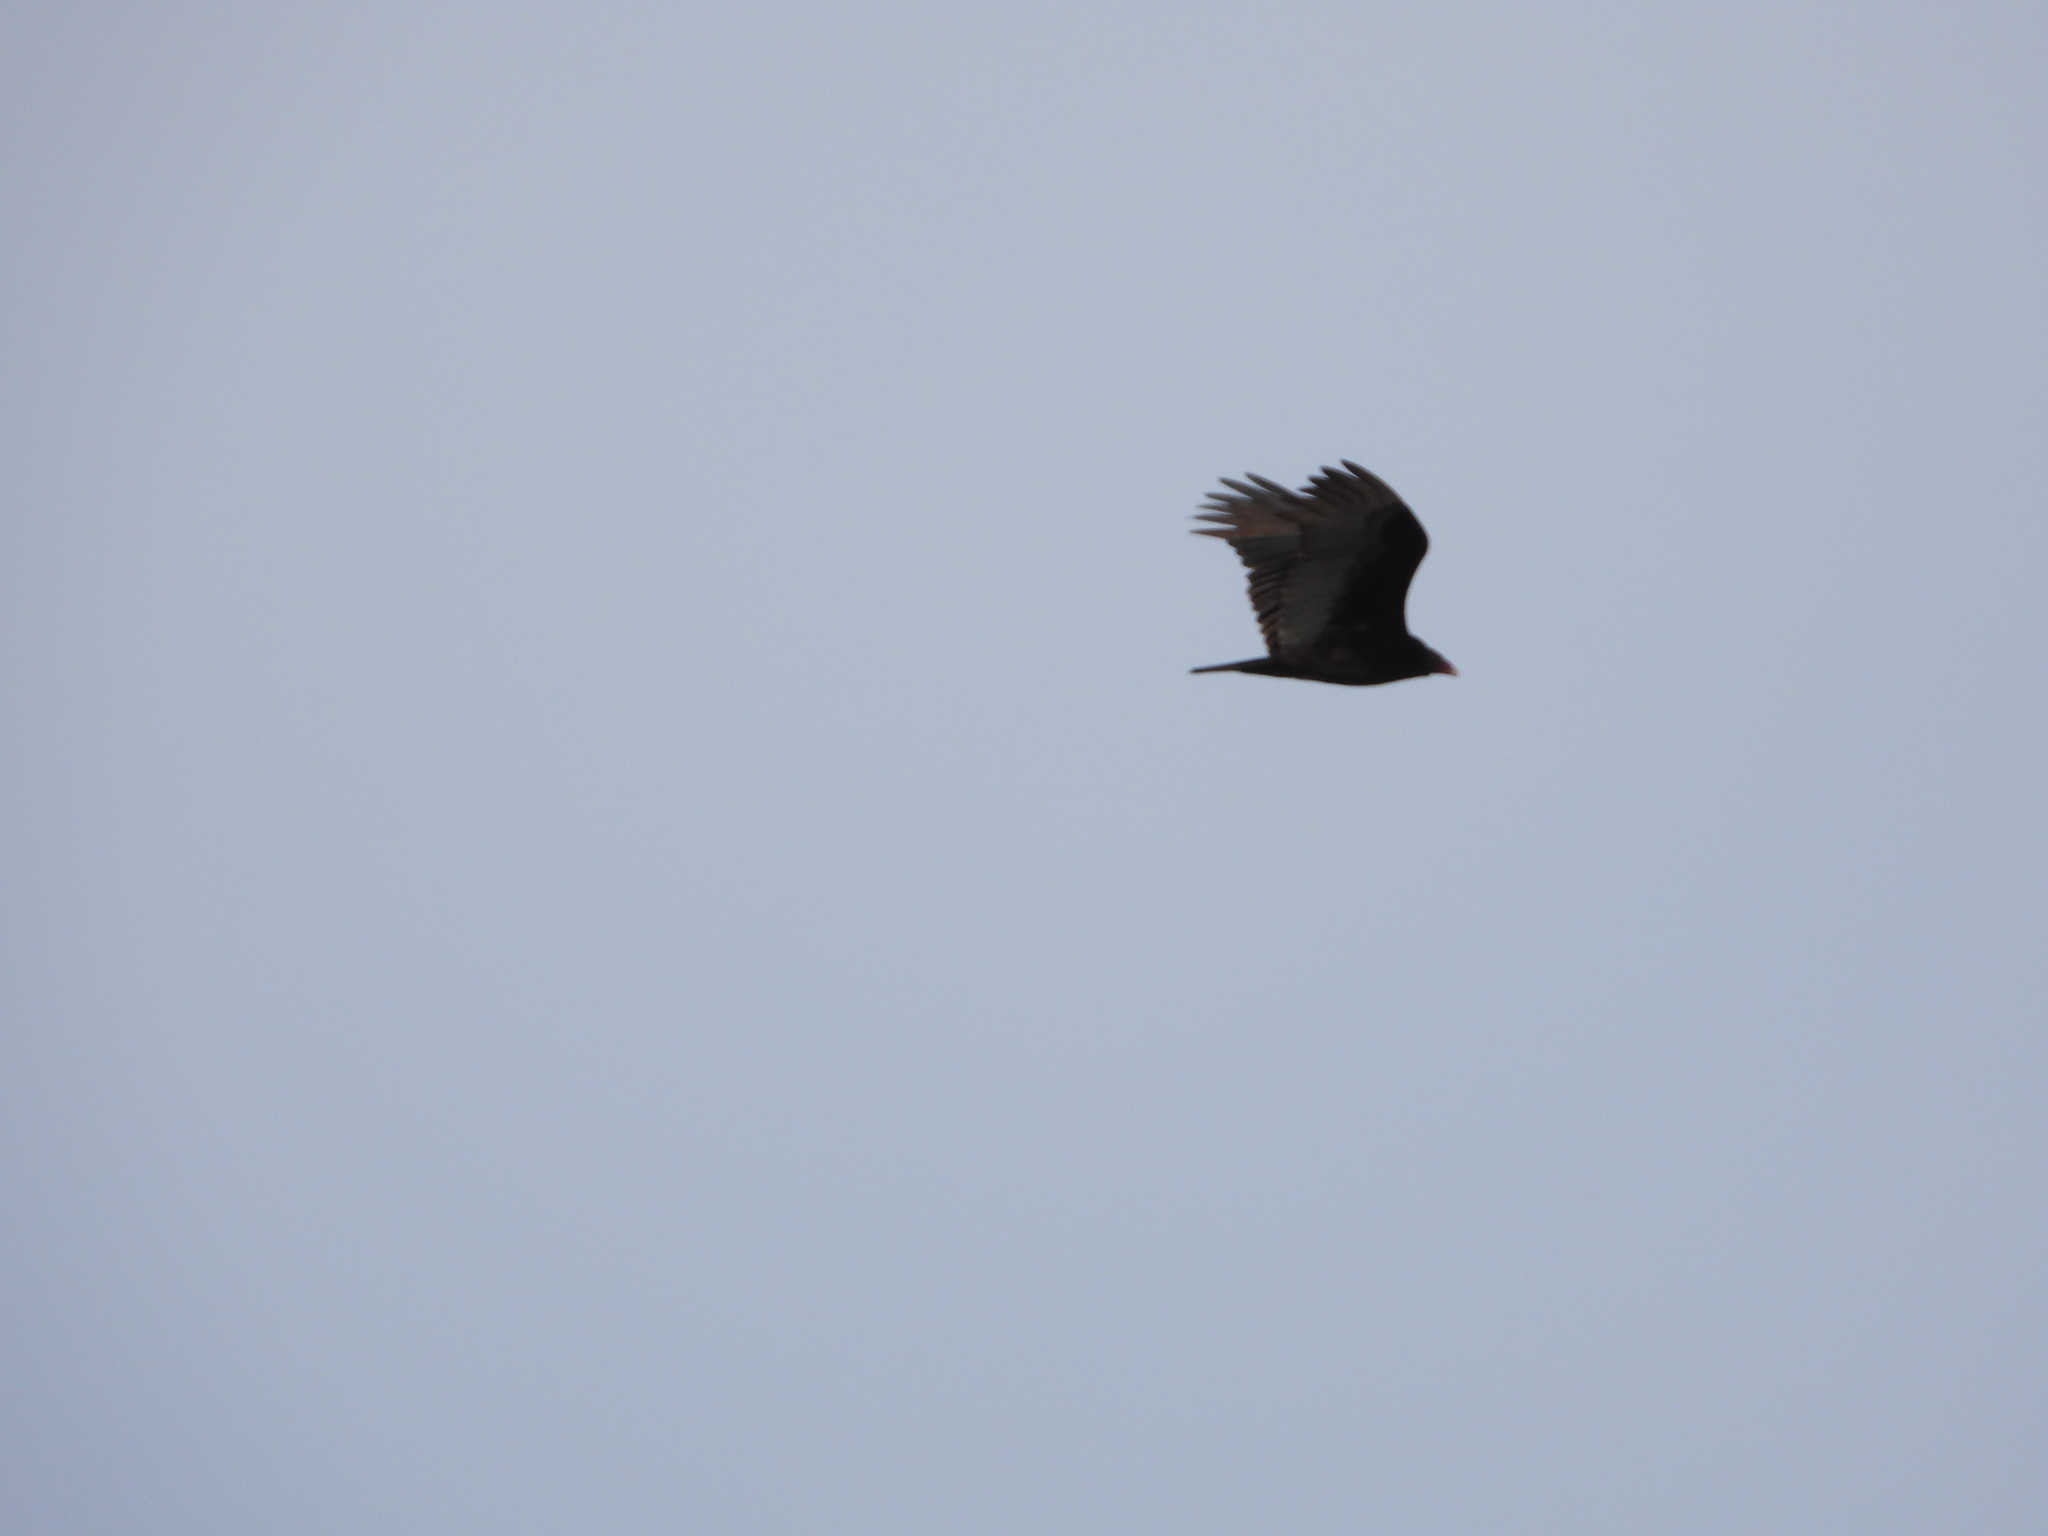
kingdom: Animalia
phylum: Chordata
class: Aves
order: Accipitriformes
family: Cathartidae
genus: Cathartes
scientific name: Cathartes aura
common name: Turkey vulture
